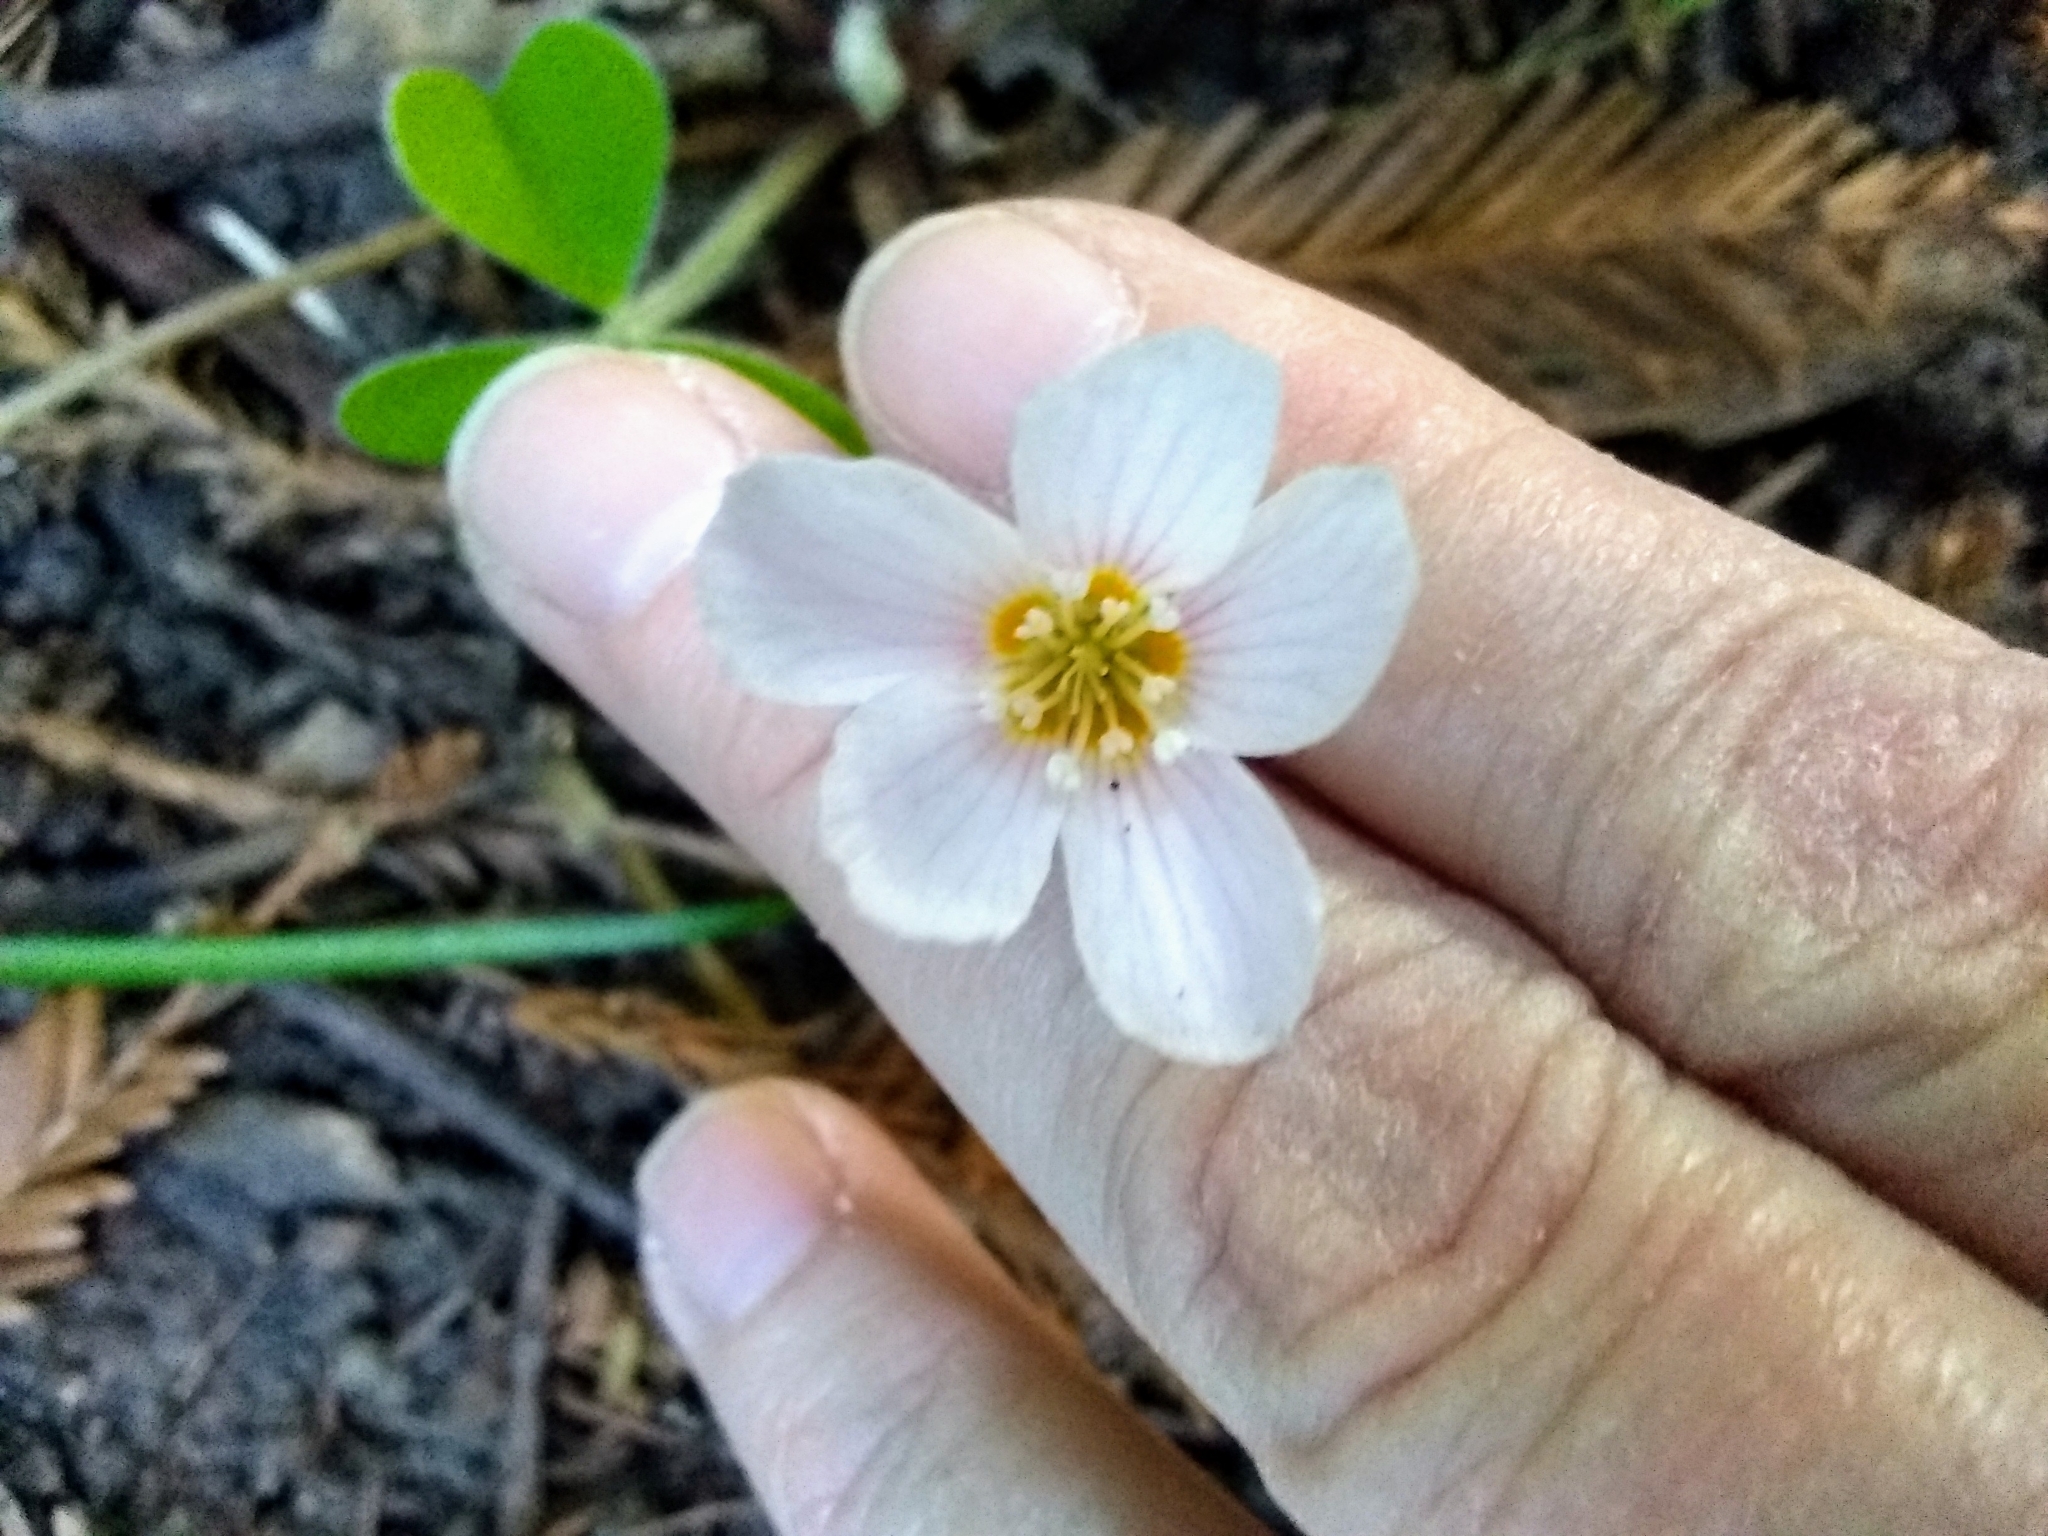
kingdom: Plantae
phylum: Tracheophyta
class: Magnoliopsida
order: Oxalidales
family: Oxalidaceae
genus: Oxalis
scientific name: Oxalis oregana
